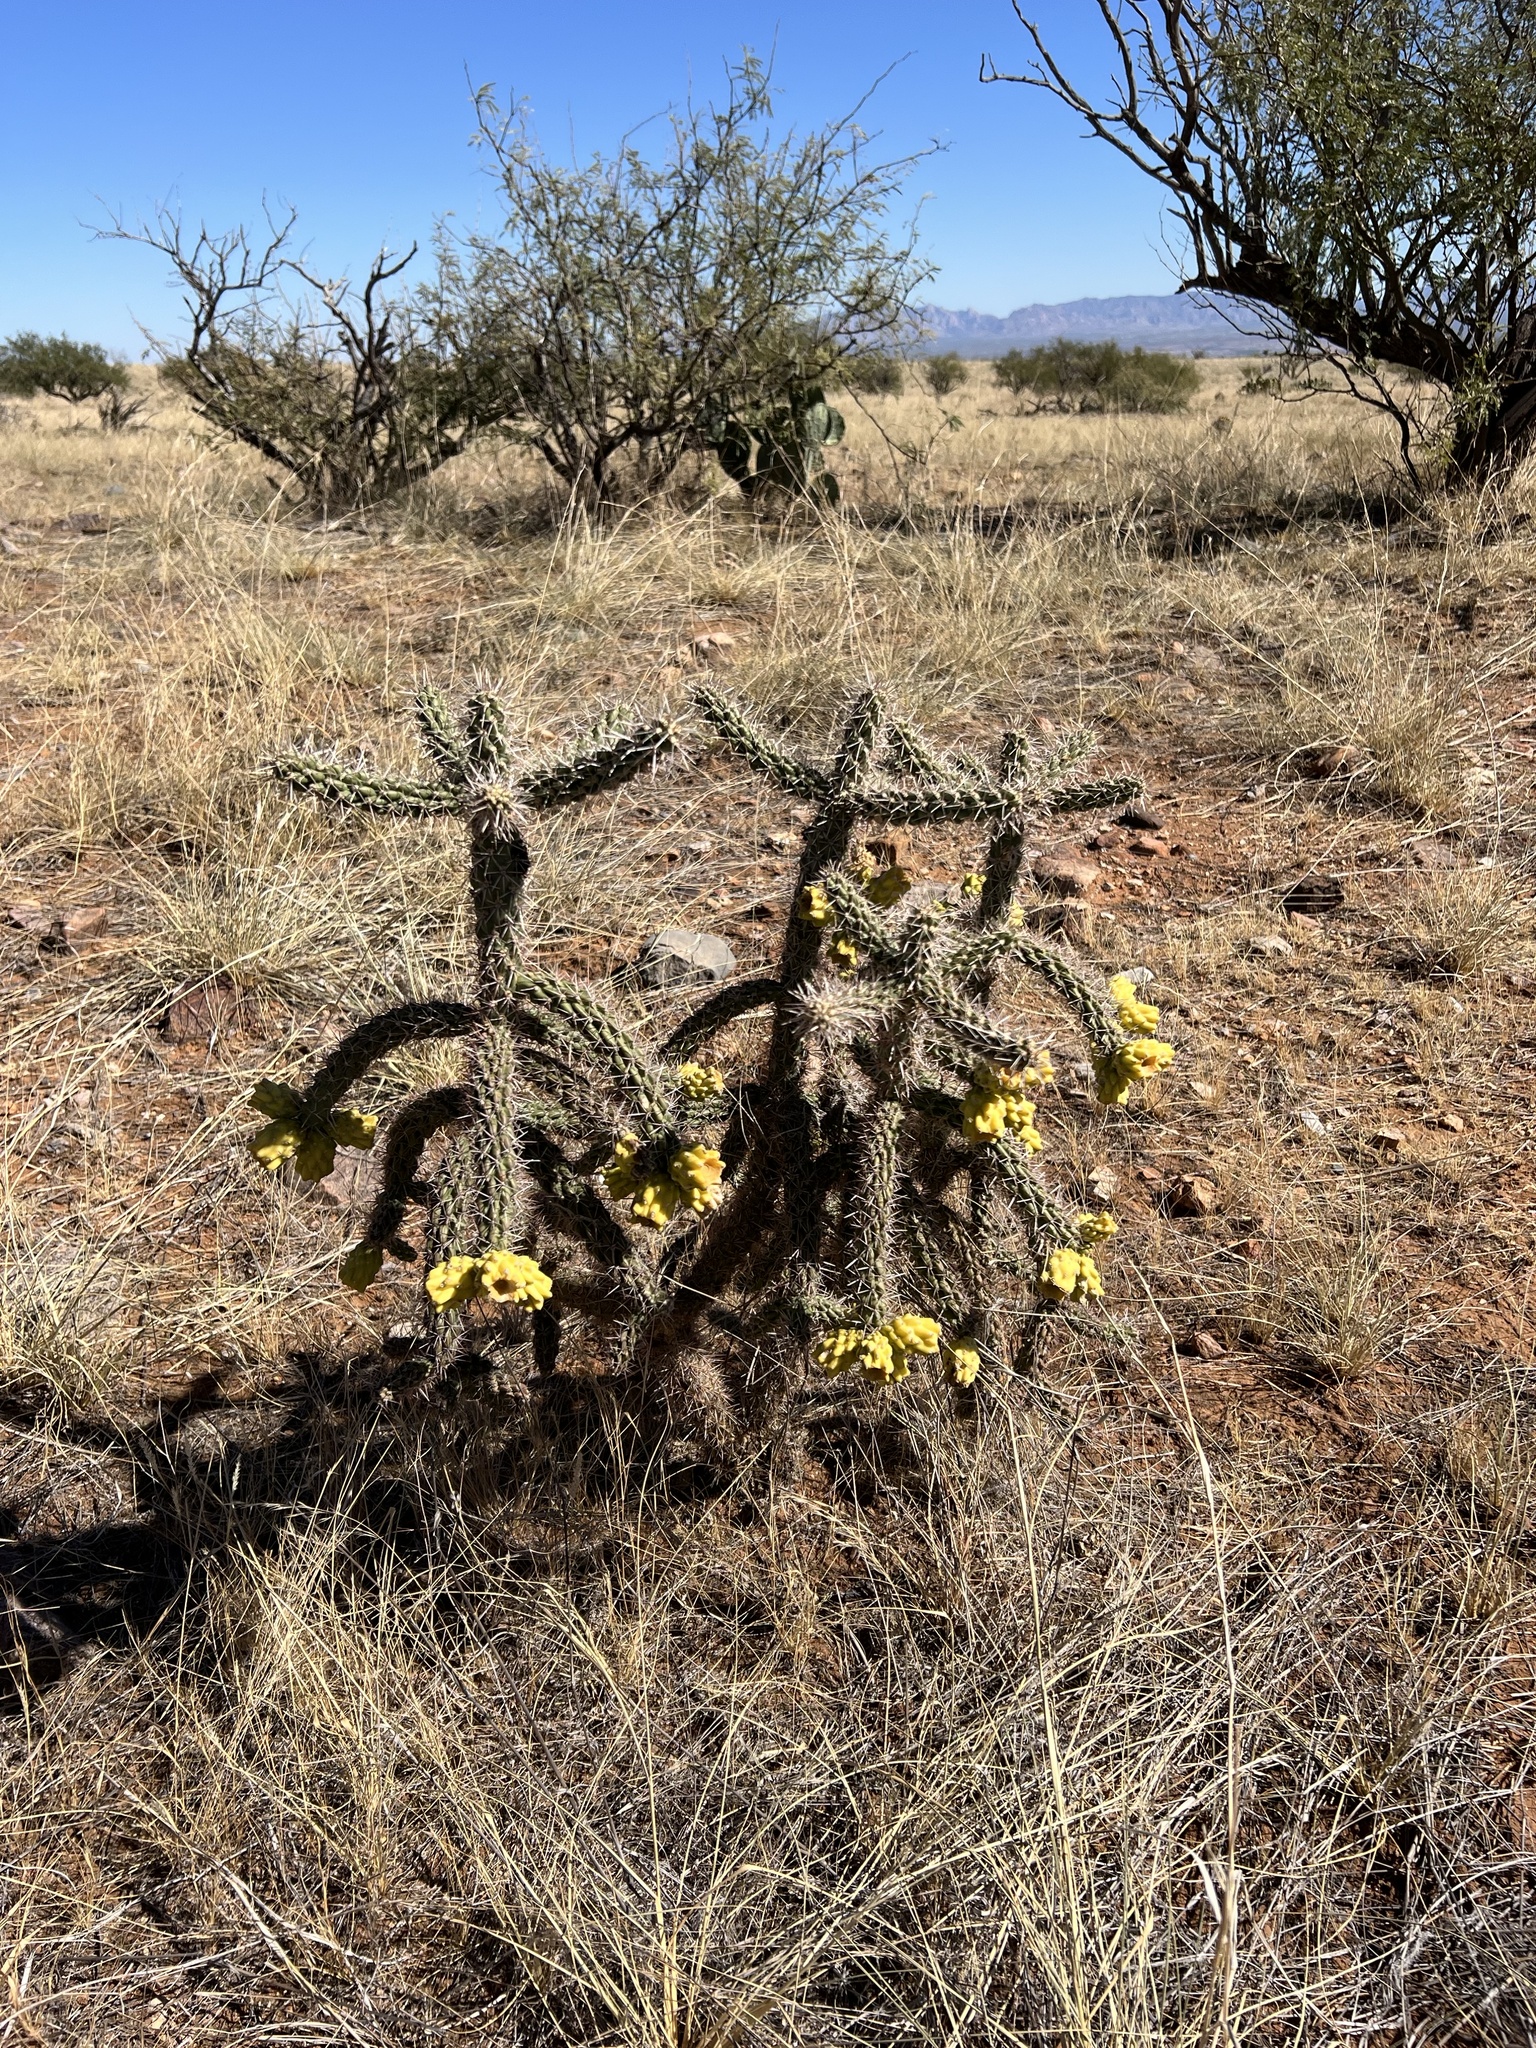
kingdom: Plantae
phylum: Tracheophyta
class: Magnoliopsida
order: Caryophyllales
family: Cactaceae
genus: Cylindropuntia
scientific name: Cylindropuntia imbricata
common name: Candelabrum cactus
